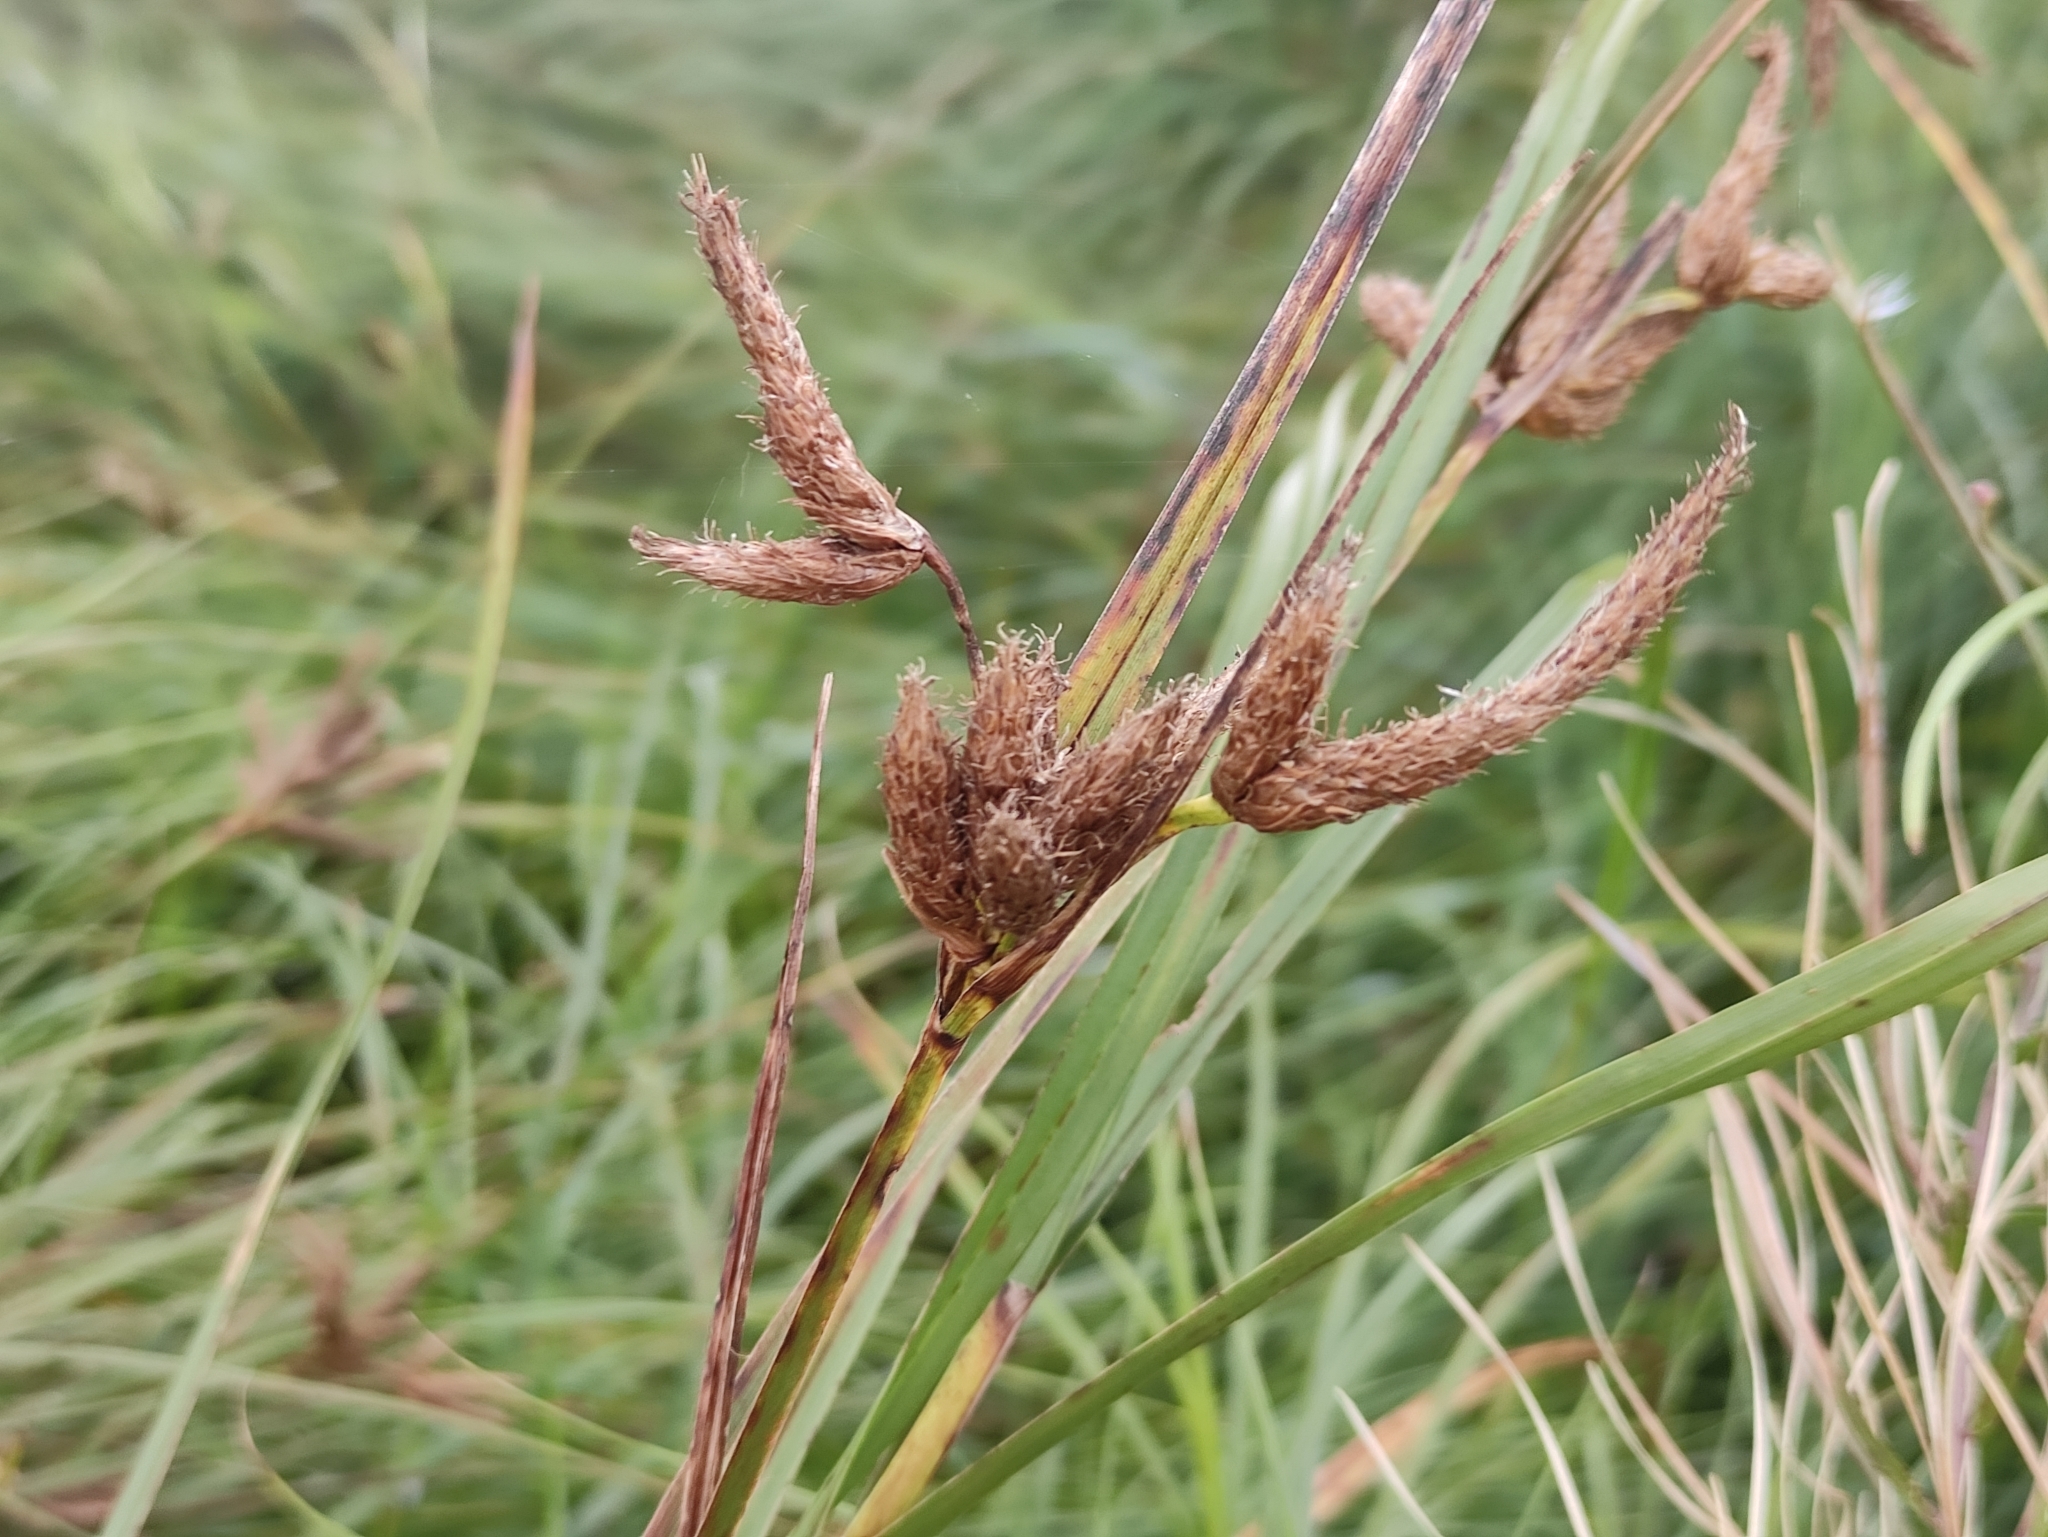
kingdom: Plantae
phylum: Tracheophyta
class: Liliopsida
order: Poales
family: Cyperaceae
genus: Bolboschoenus
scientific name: Bolboschoenus maritimus
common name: Sea club-rush
